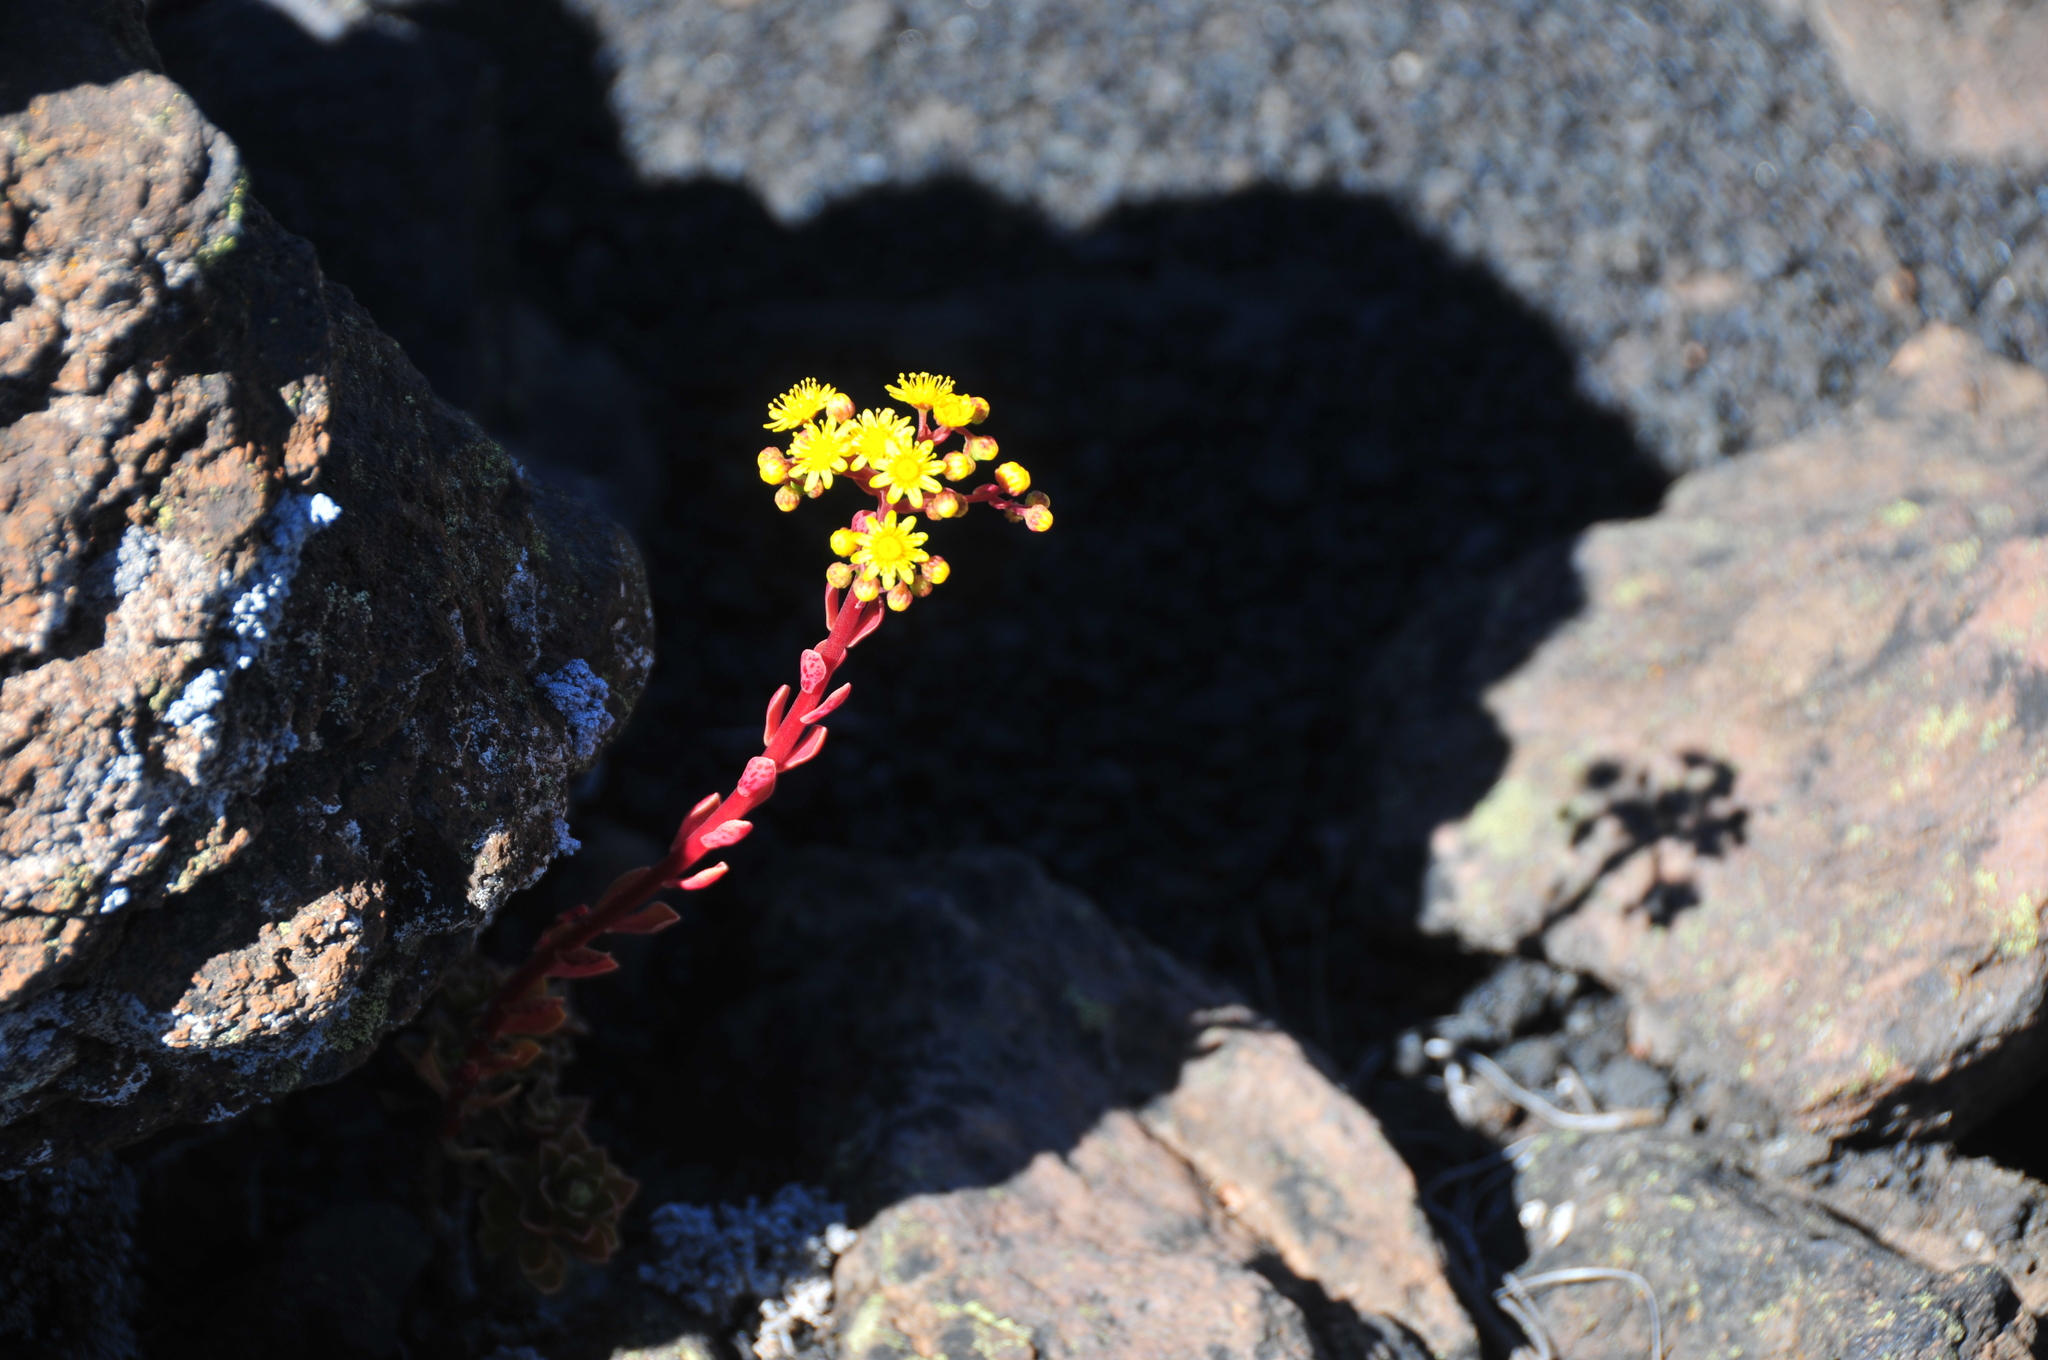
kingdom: Plantae
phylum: Tracheophyta
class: Magnoliopsida
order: Saxifragales
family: Crassulaceae
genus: Aeonium
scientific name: Aeonium spathulatum
